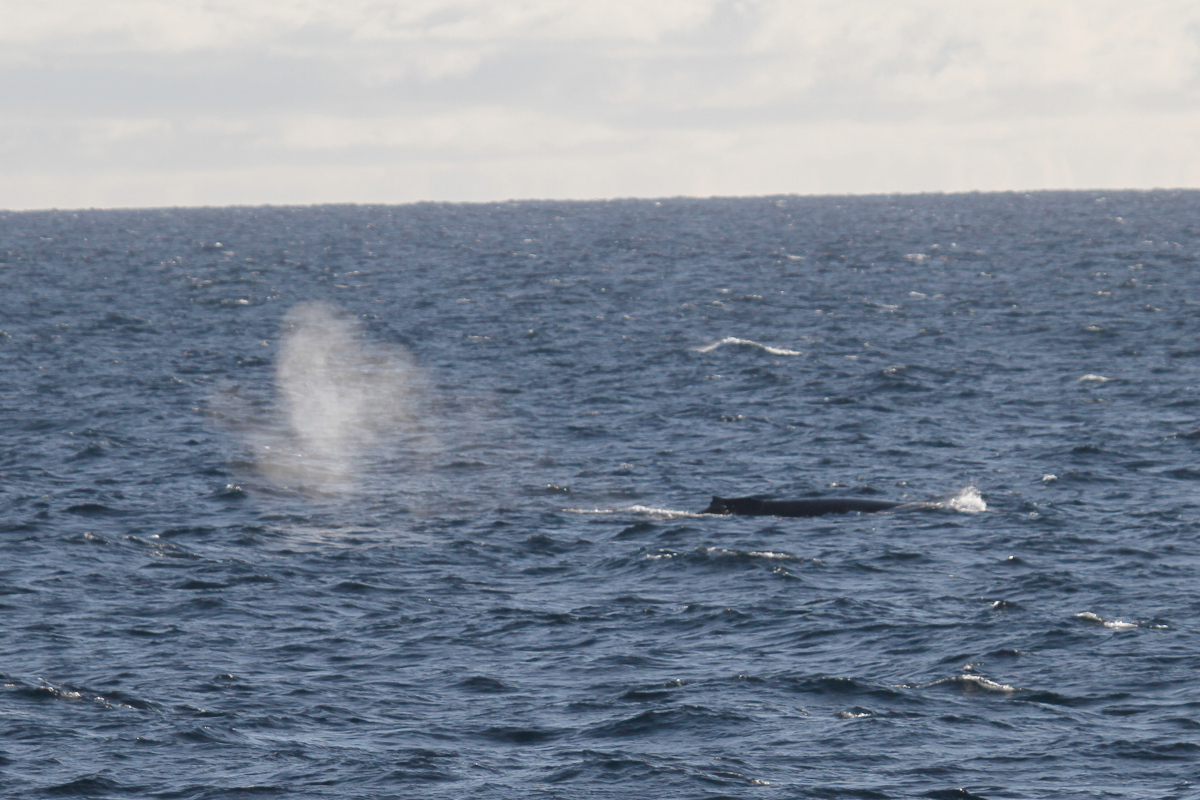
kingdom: Animalia
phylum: Chordata
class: Mammalia
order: Cetacea
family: Balaenopteridae
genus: Megaptera
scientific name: Megaptera novaeangliae
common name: Humpback whale
